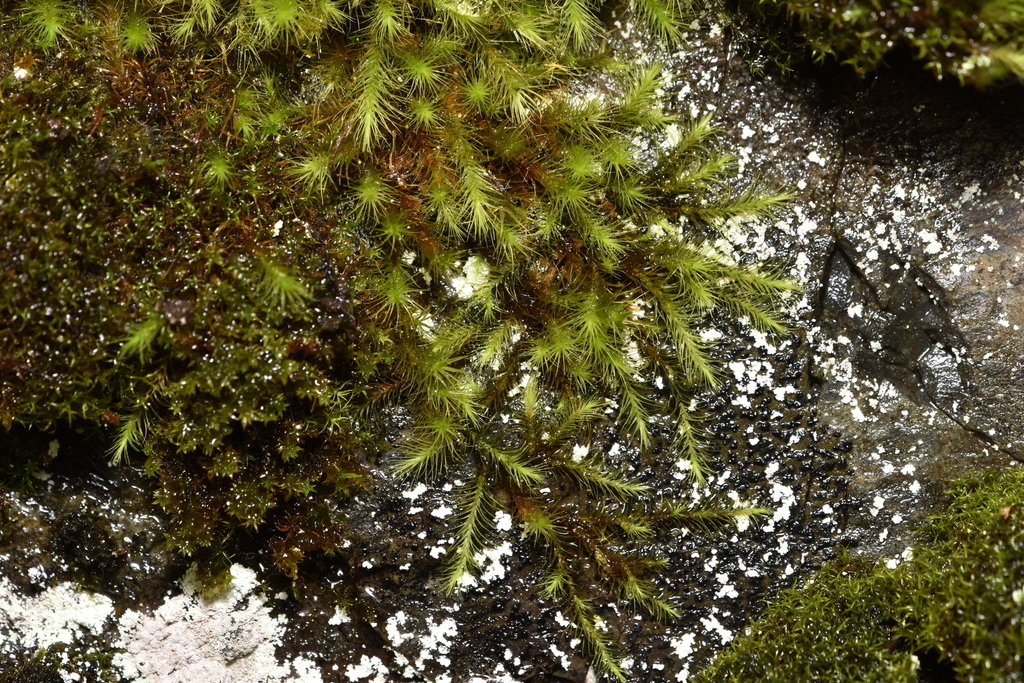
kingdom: Plantae
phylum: Bryophyta
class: Bryopsida
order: Bartramiales
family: Bartramiaceae
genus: Anacolia
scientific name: Anacolia menziesii
